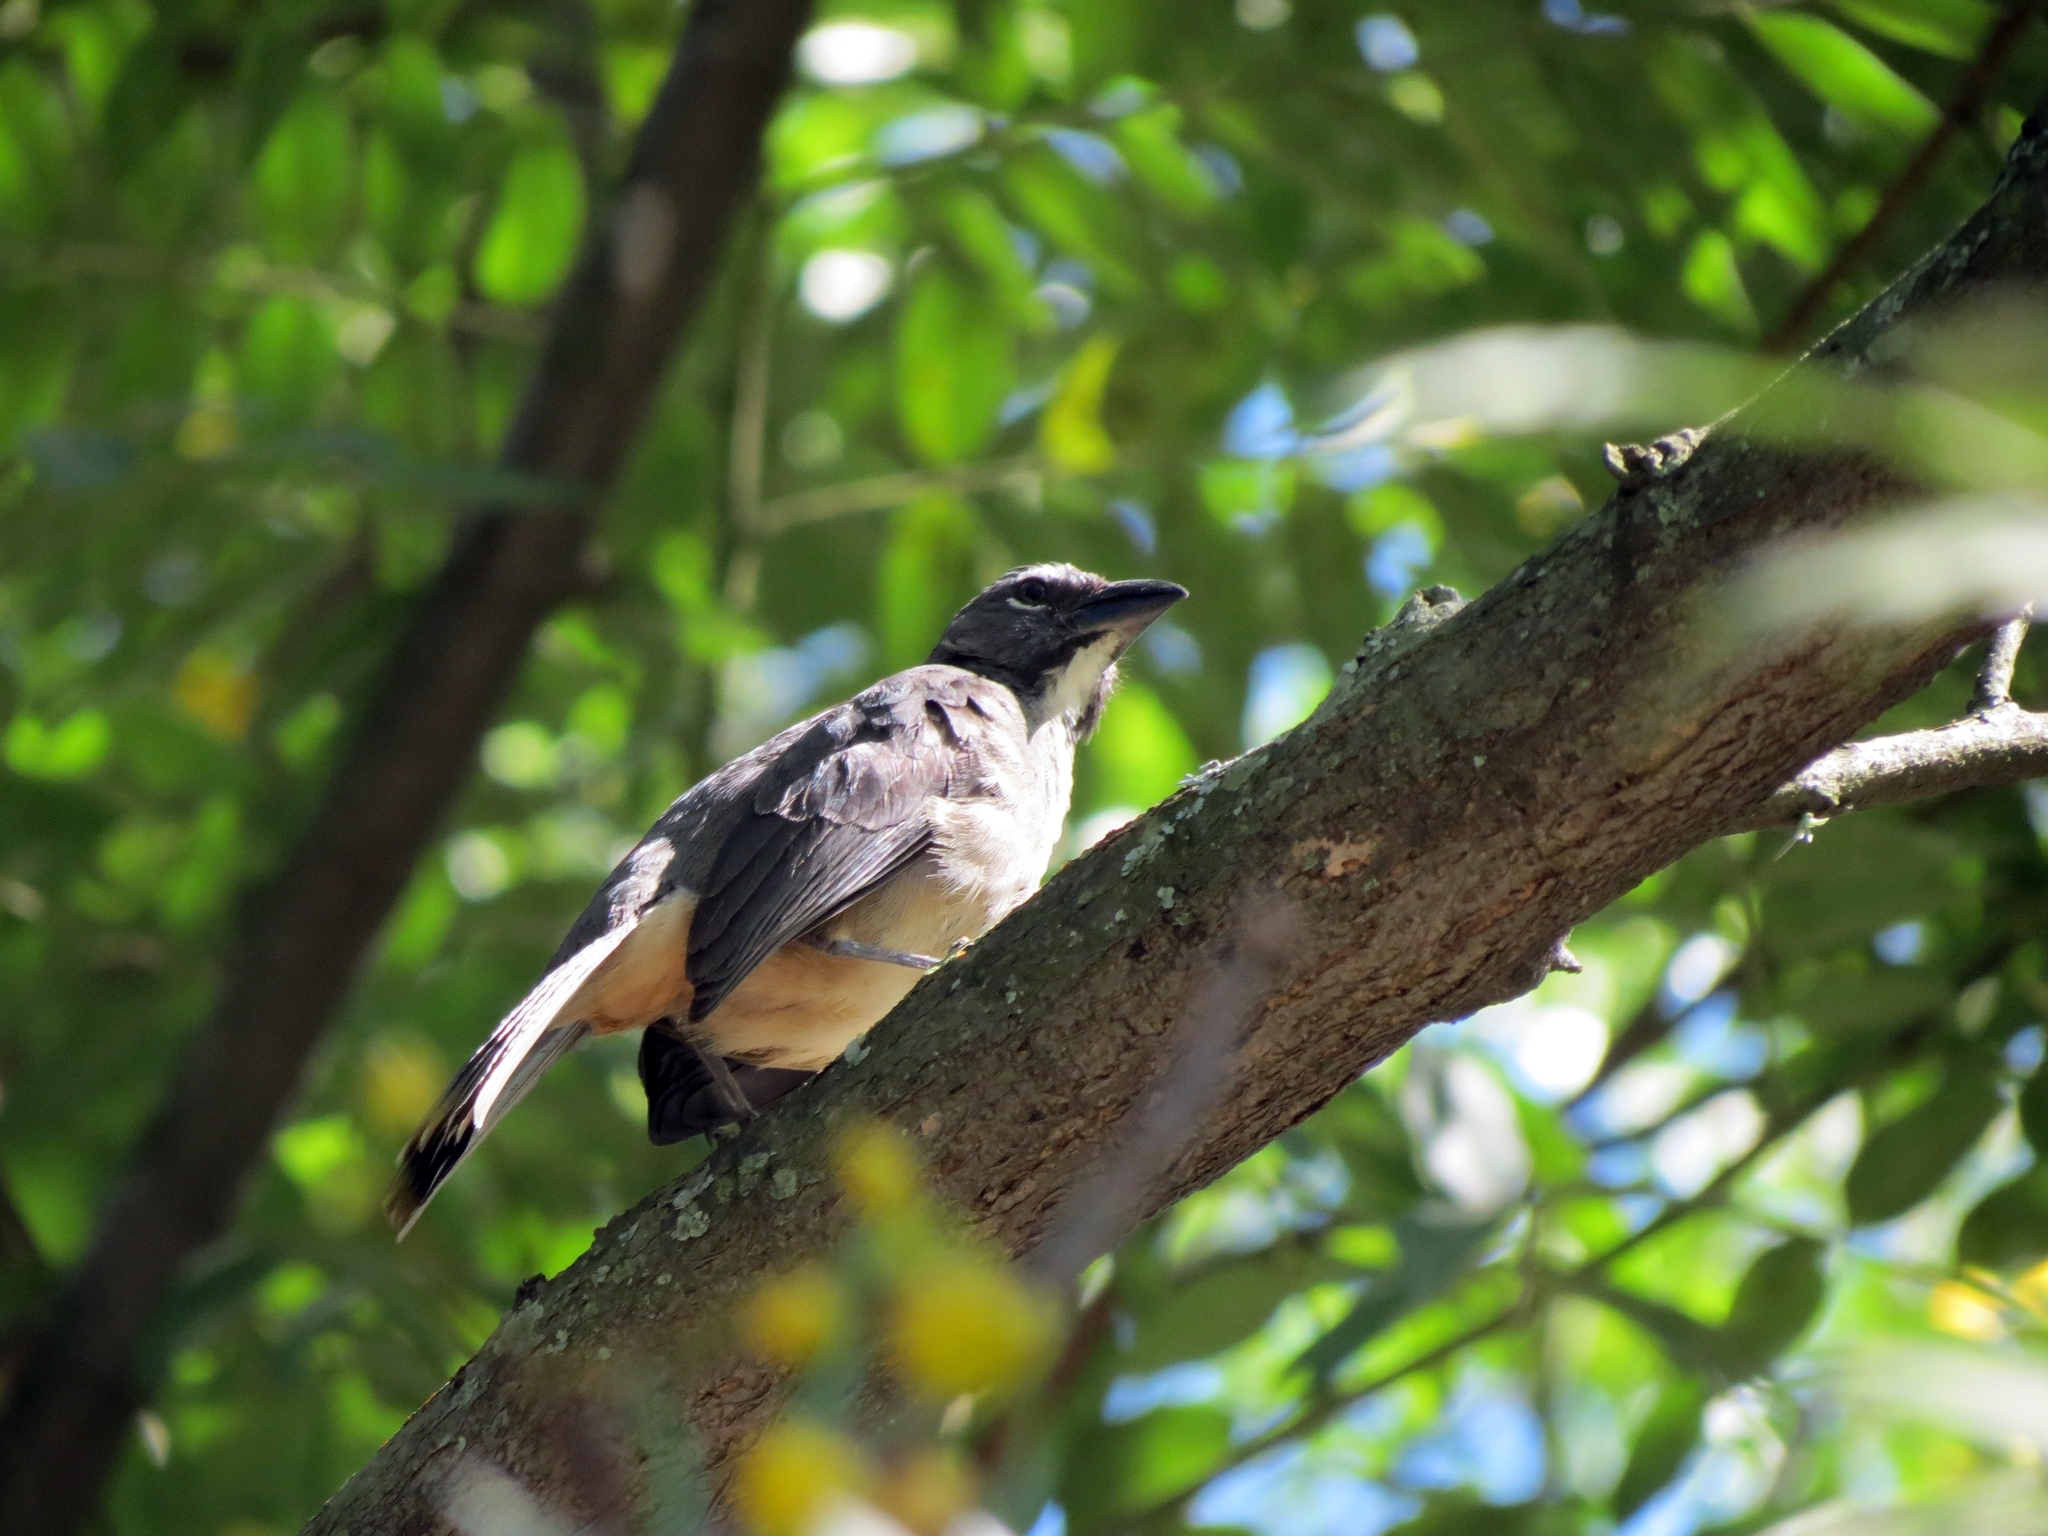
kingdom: Animalia
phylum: Chordata
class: Aves
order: Passeriformes
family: Thraupidae
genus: Saltator
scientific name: Saltator olivascens
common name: Caribbean grey saltator
